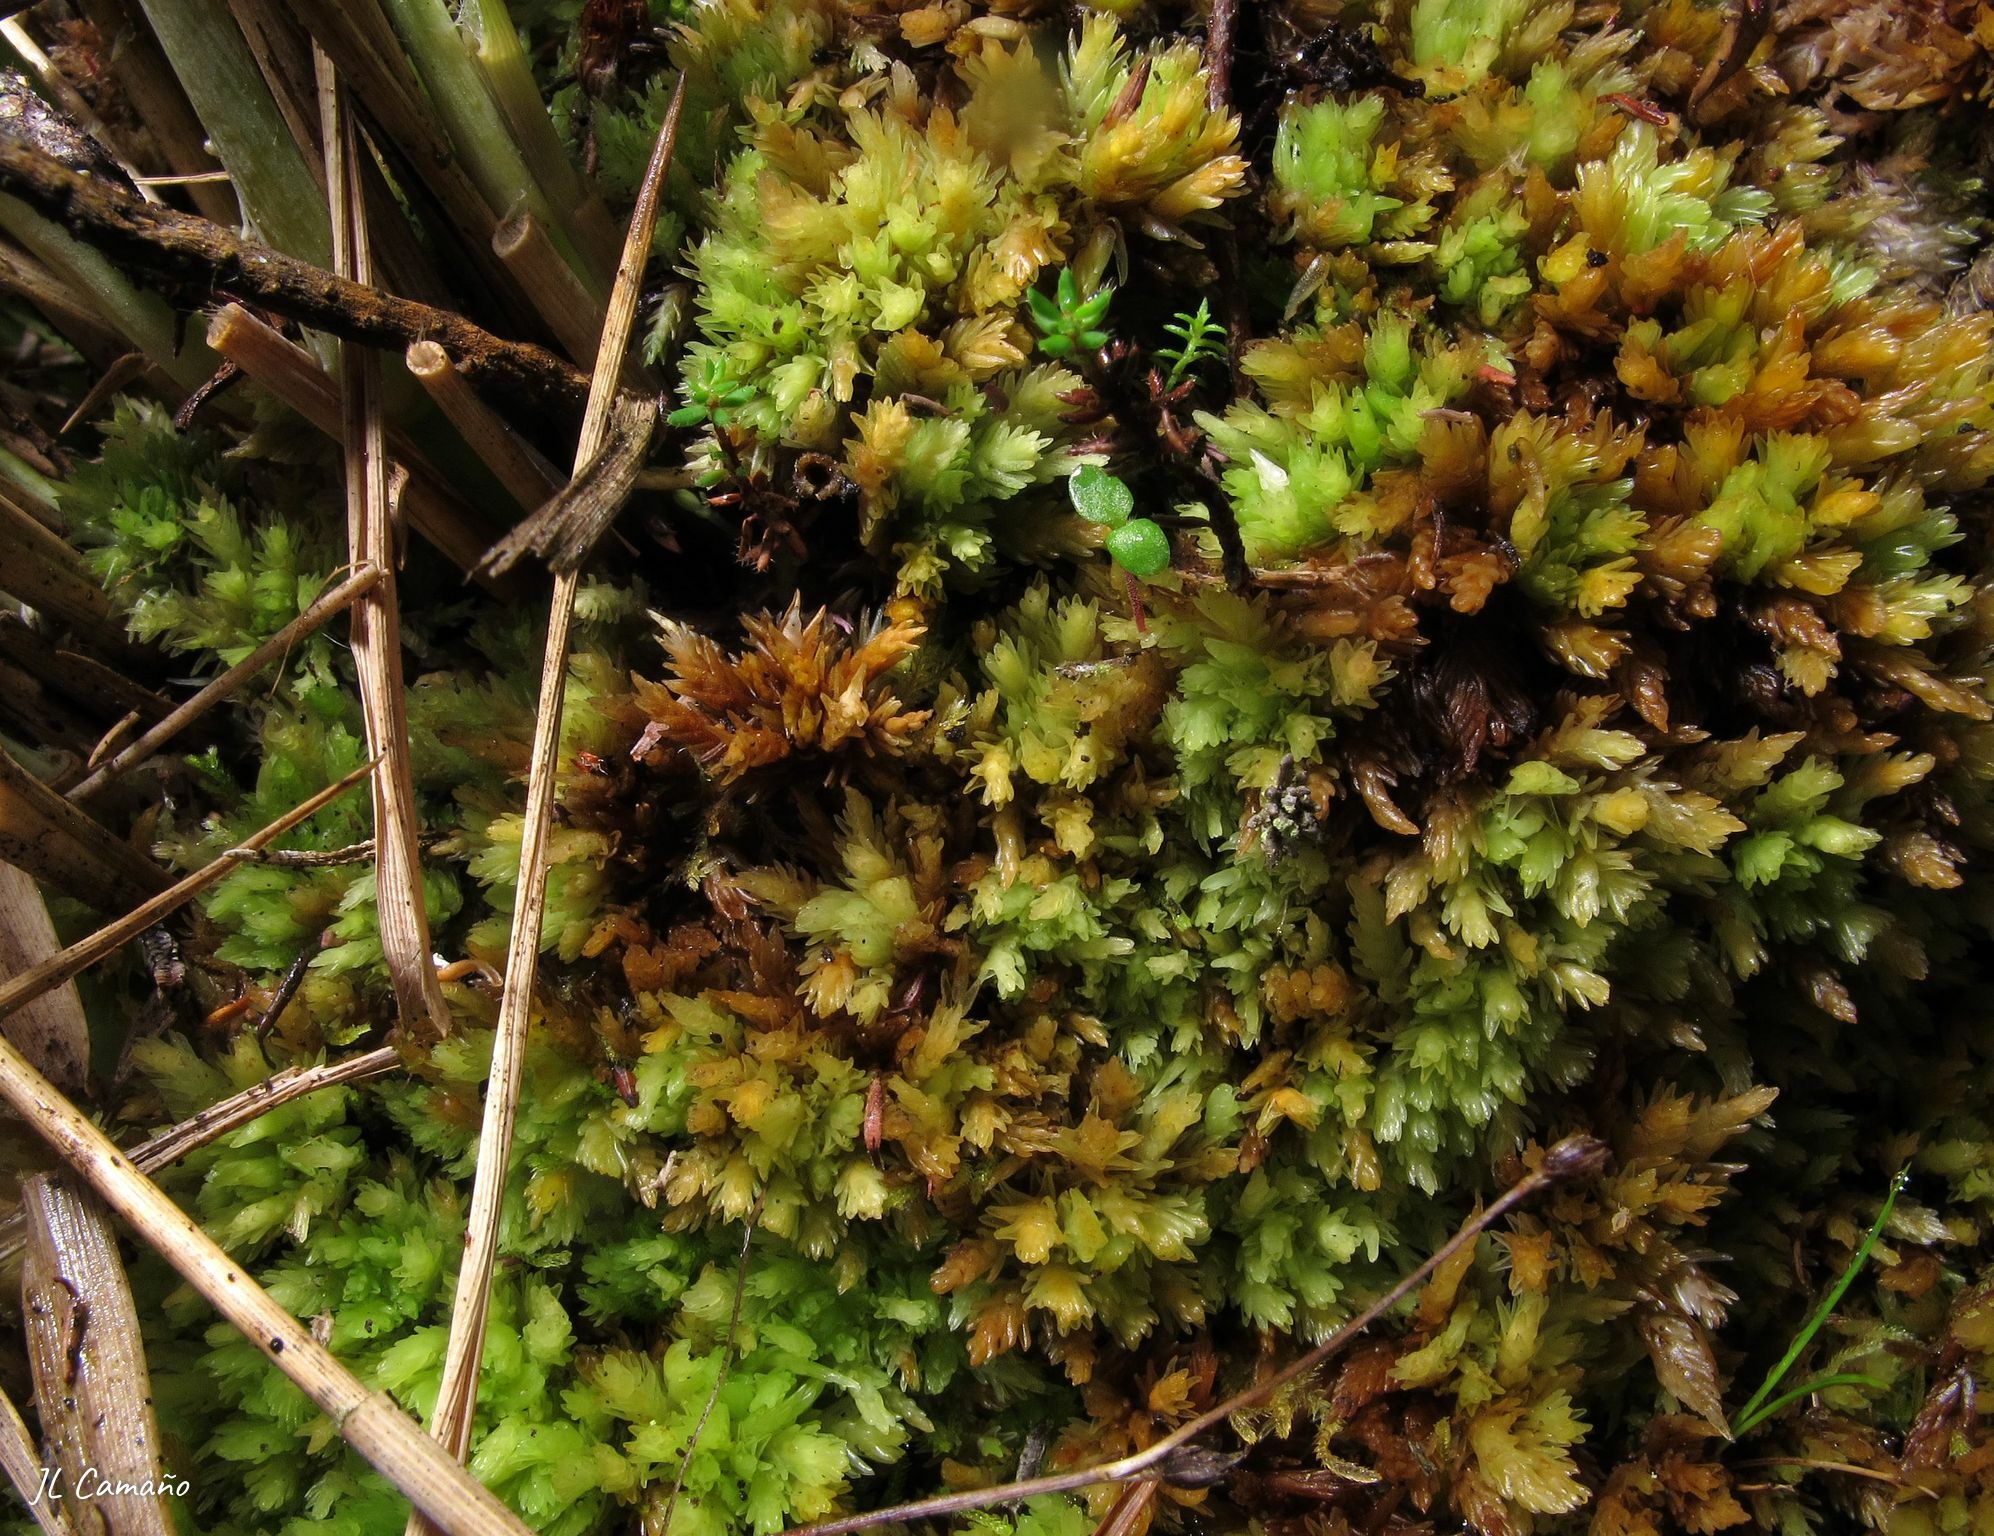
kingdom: Plantae
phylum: Bryophyta
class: Sphagnopsida
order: Sphagnales
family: Sphagnaceae
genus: Sphagnum
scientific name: Sphagnum compactum
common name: Compact peat moss
